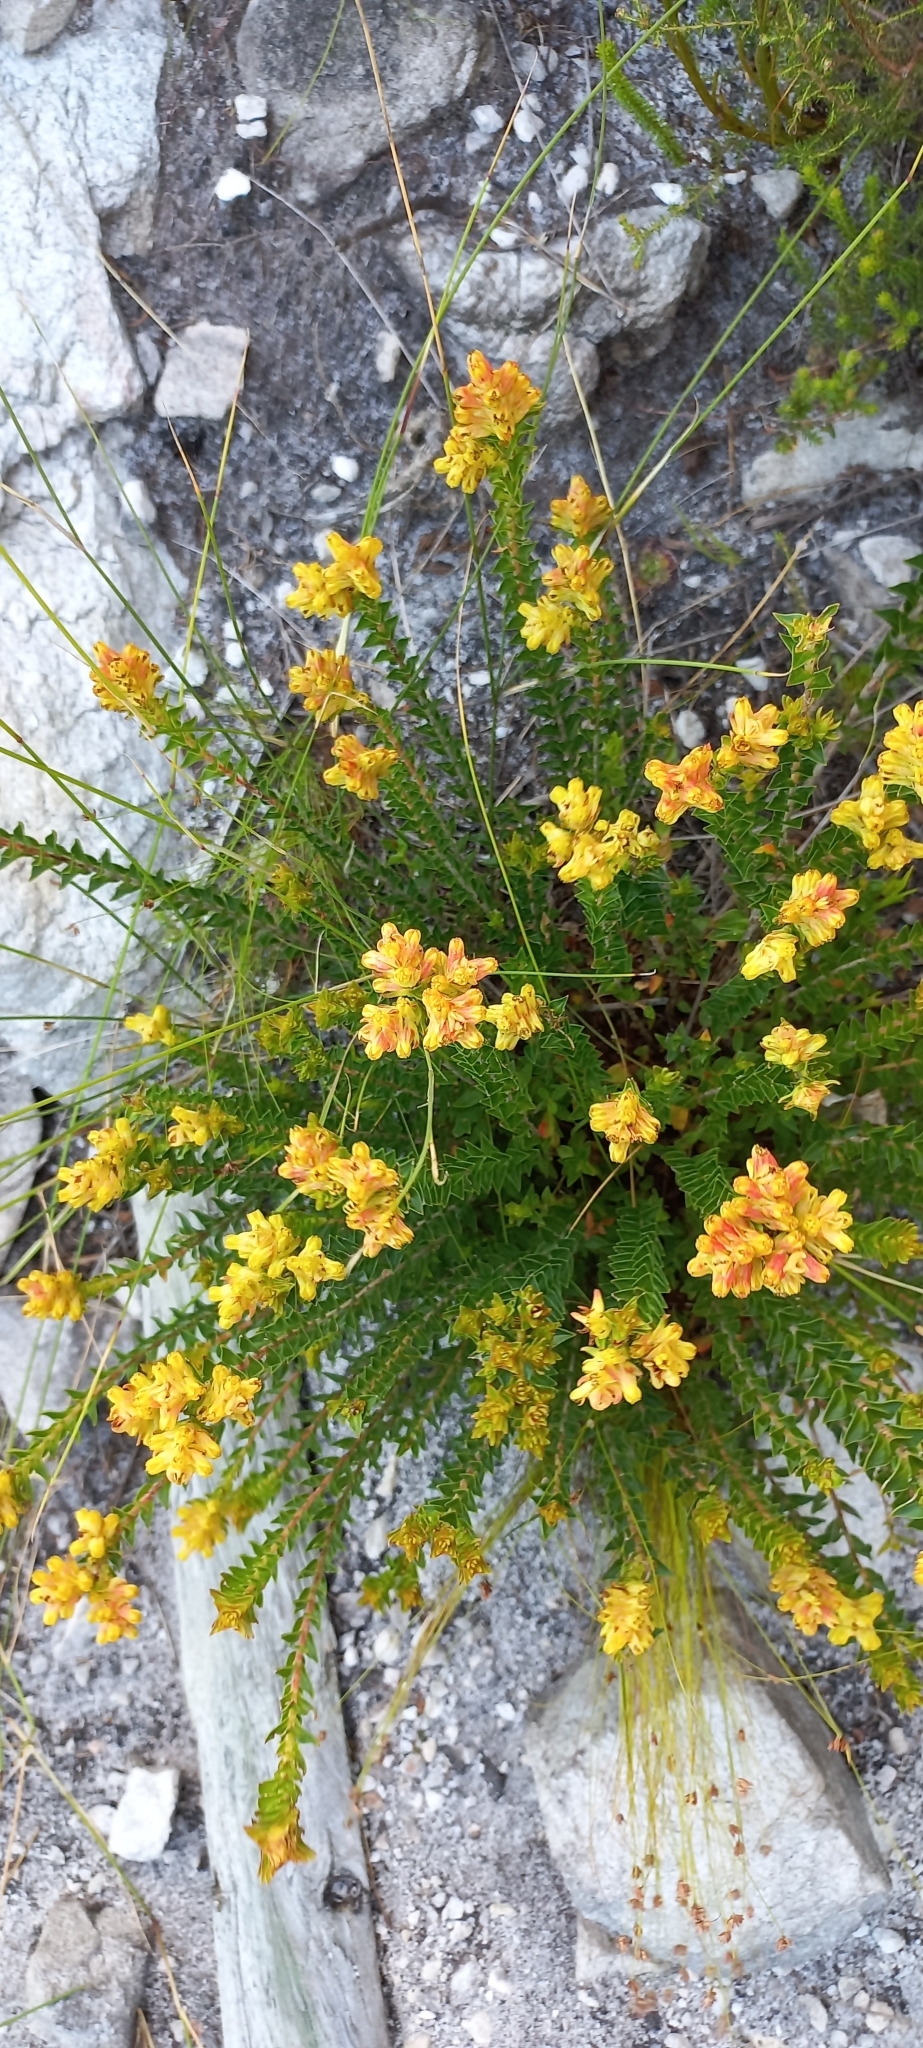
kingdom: Plantae
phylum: Tracheophyta
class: Magnoliopsida
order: Myrtales
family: Penaeaceae
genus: Penaea
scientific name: Penaea mucronata
